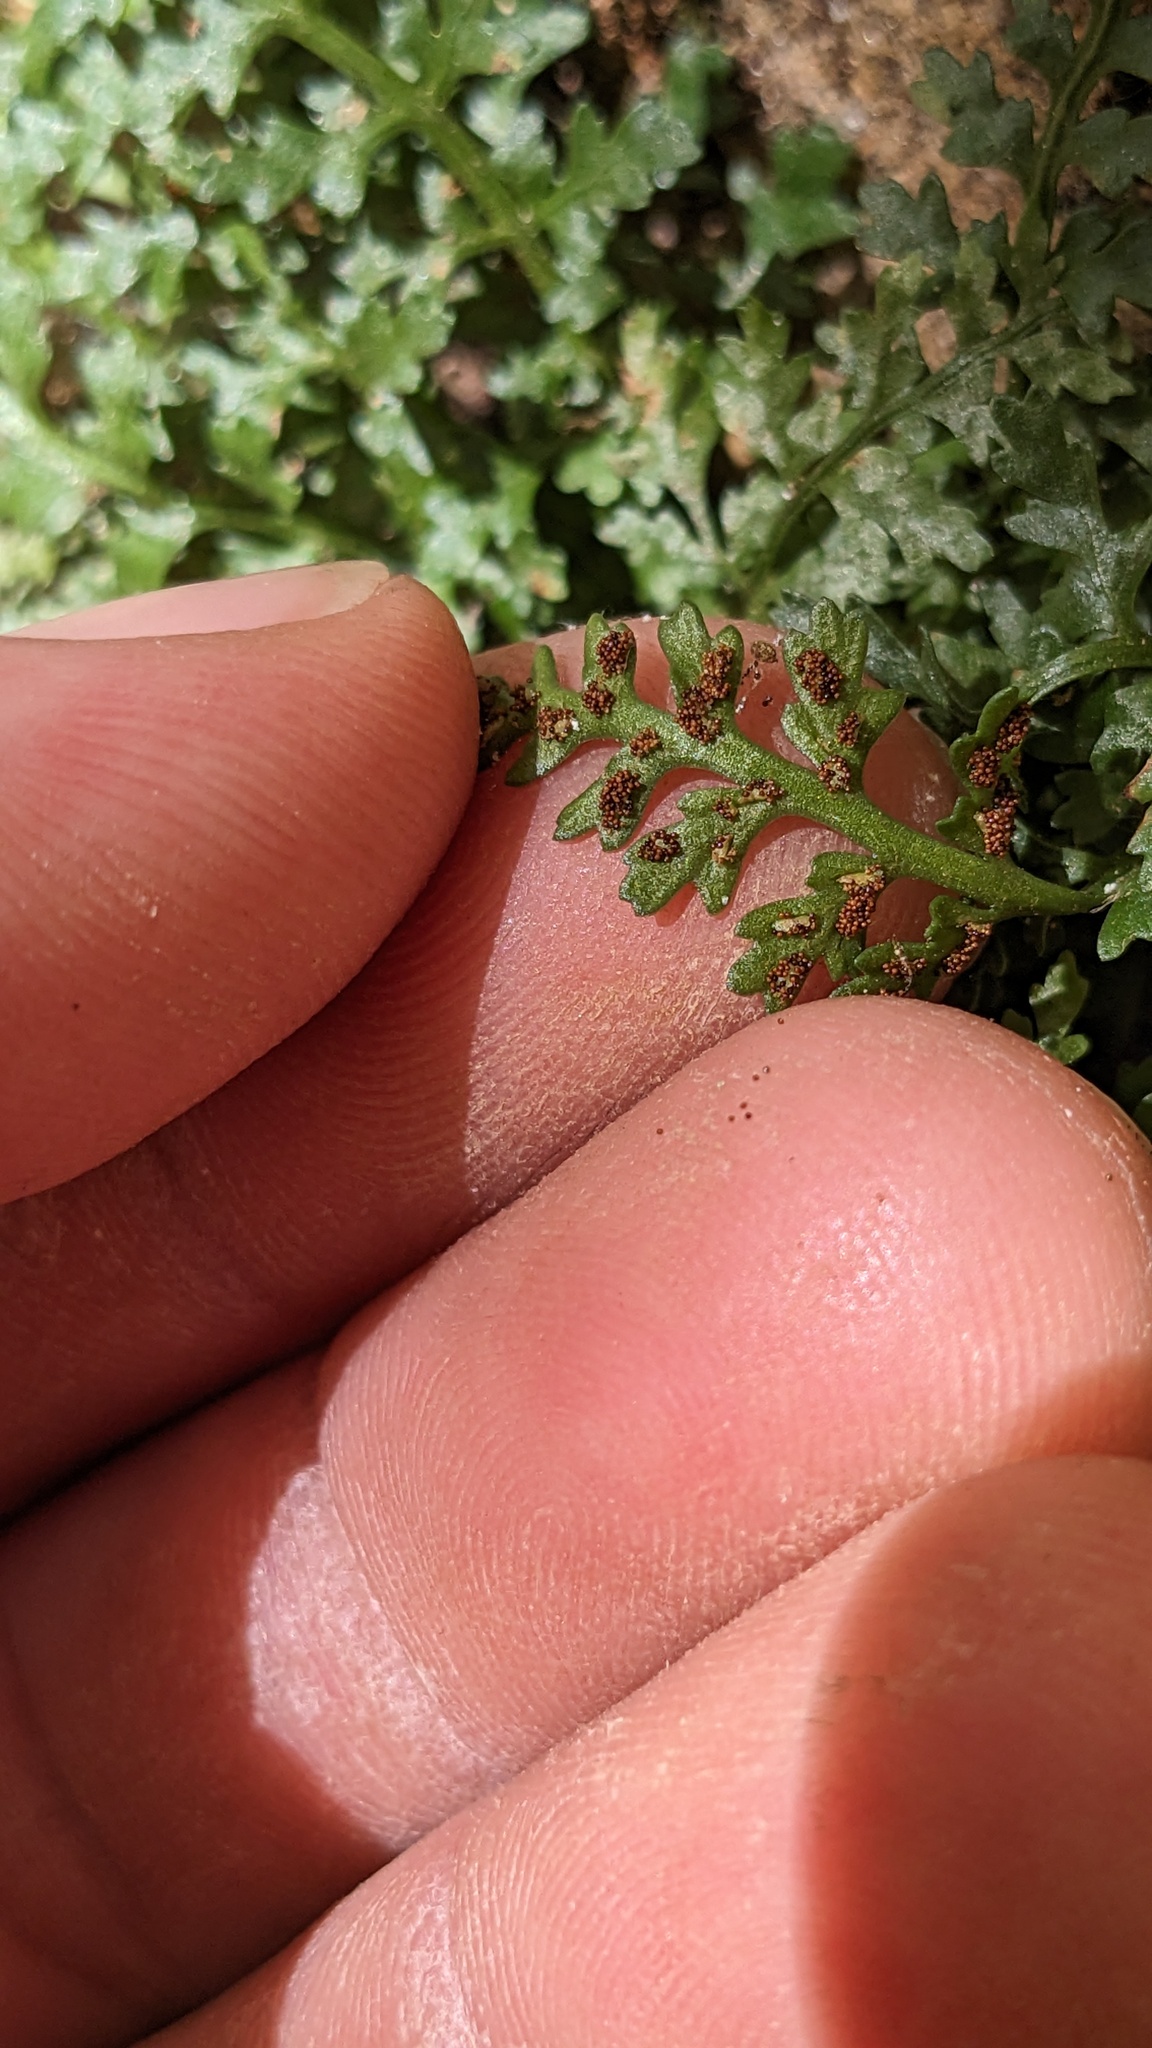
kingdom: Plantae
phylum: Tracheophyta
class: Polypodiopsida
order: Polypodiales
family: Aspleniaceae
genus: Asplenium
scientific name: Asplenium montanum
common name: Mountain spleenwort
